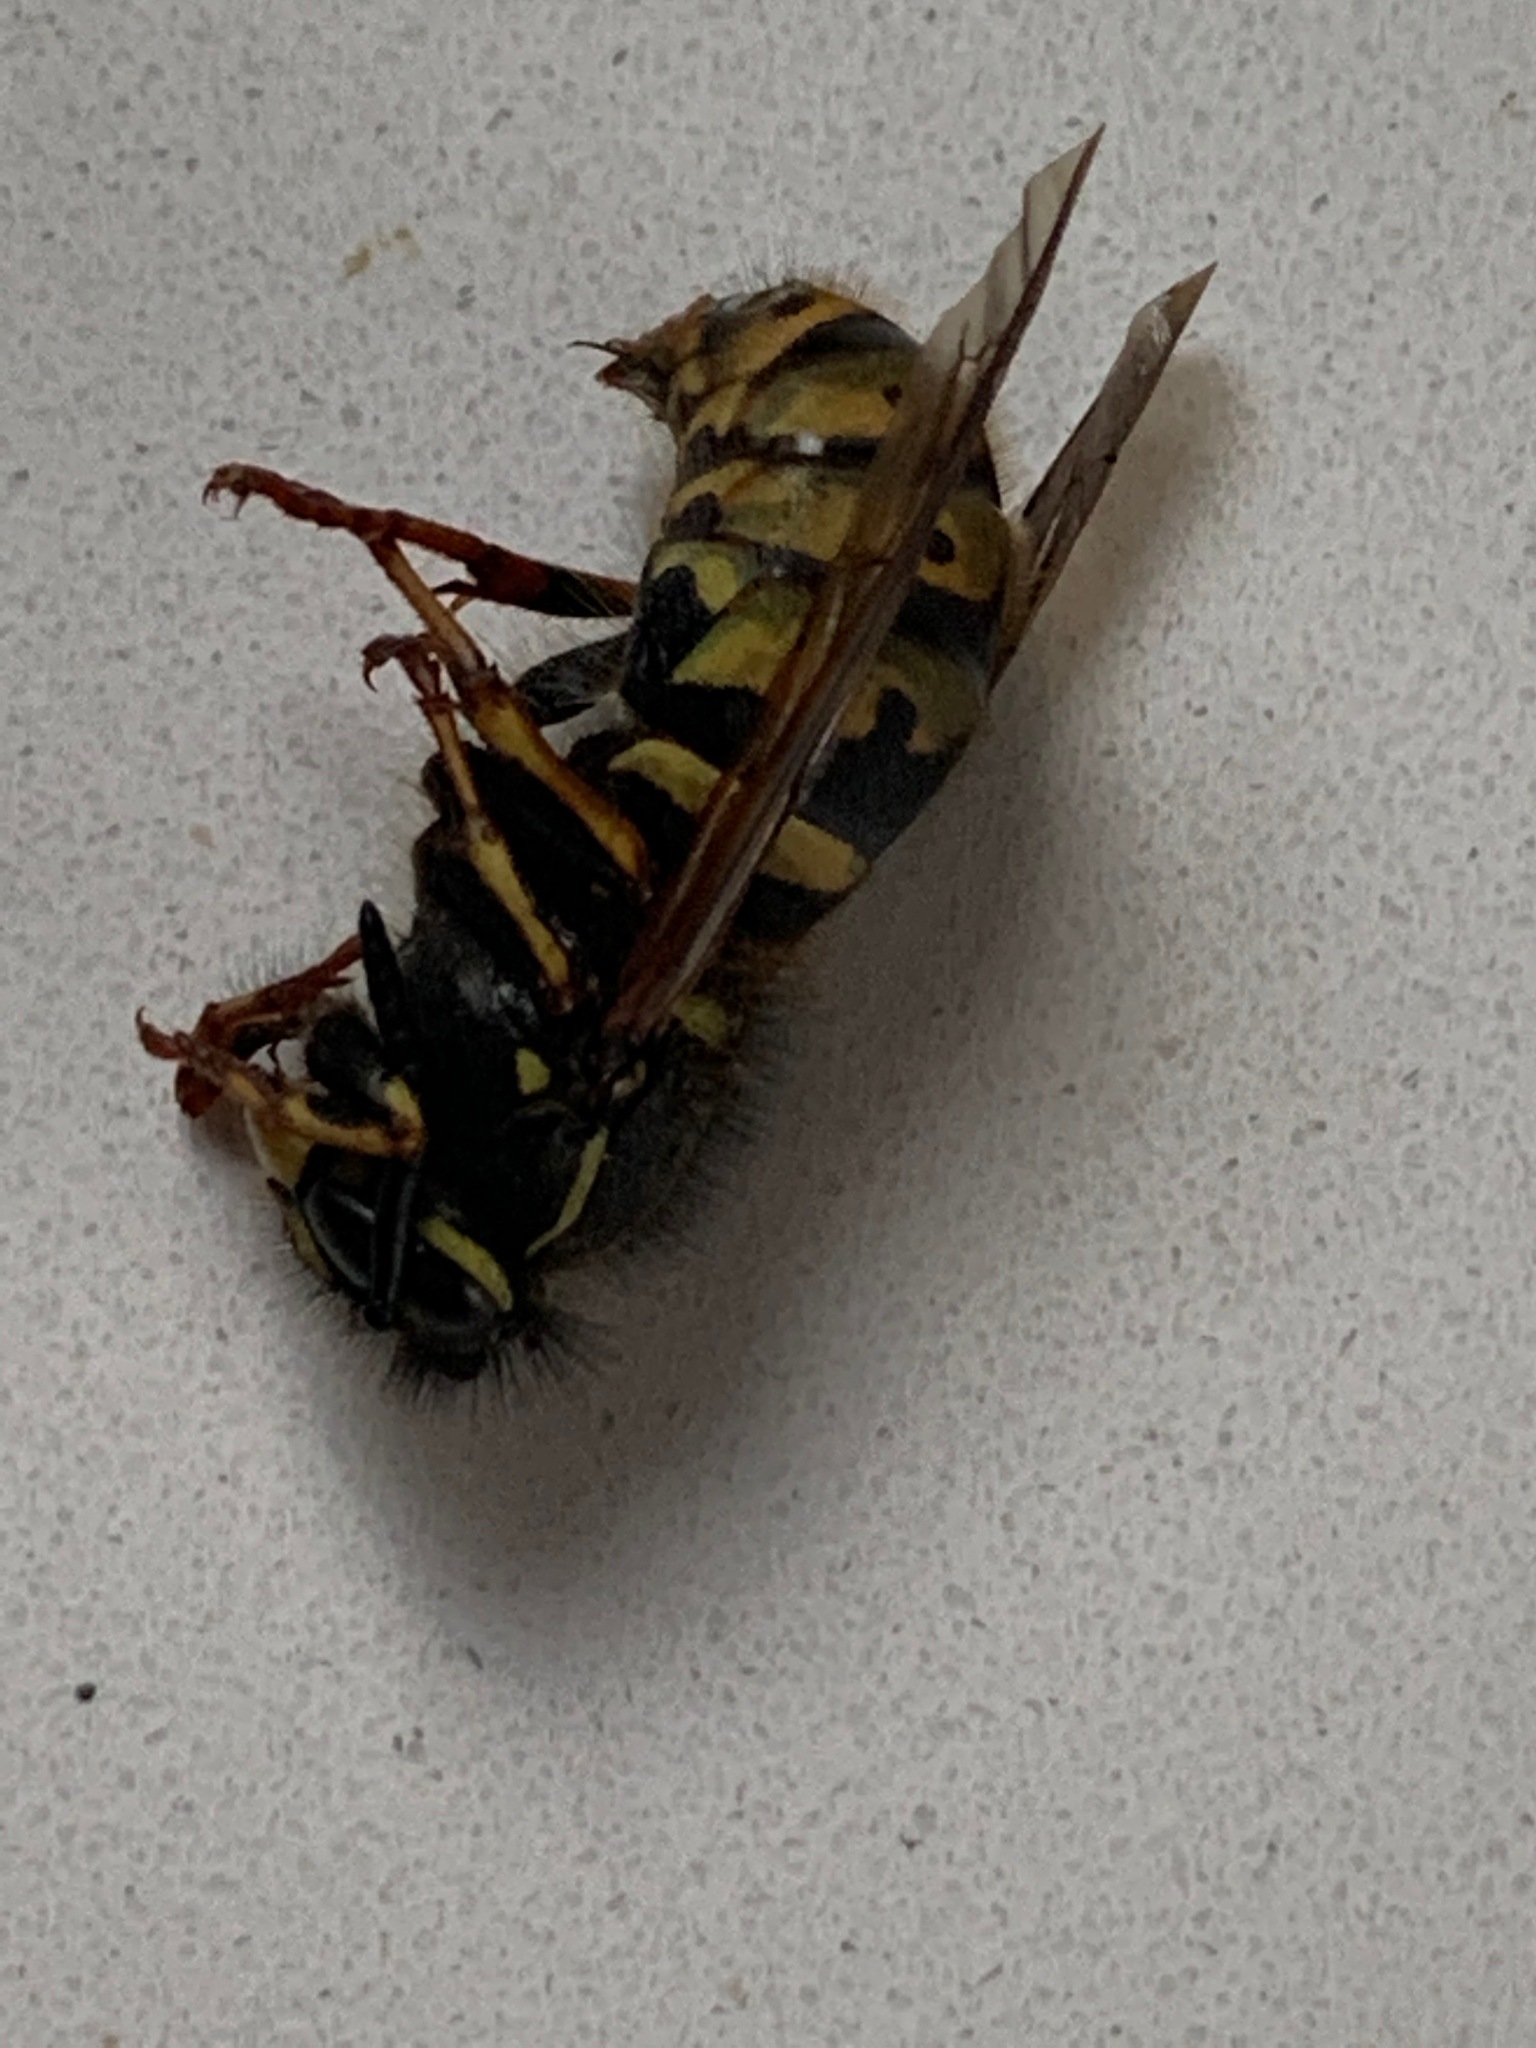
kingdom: Animalia
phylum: Arthropoda
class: Insecta
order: Hymenoptera
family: Vespidae
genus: Vespula
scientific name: Vespula vulgaris
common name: Common wasp
